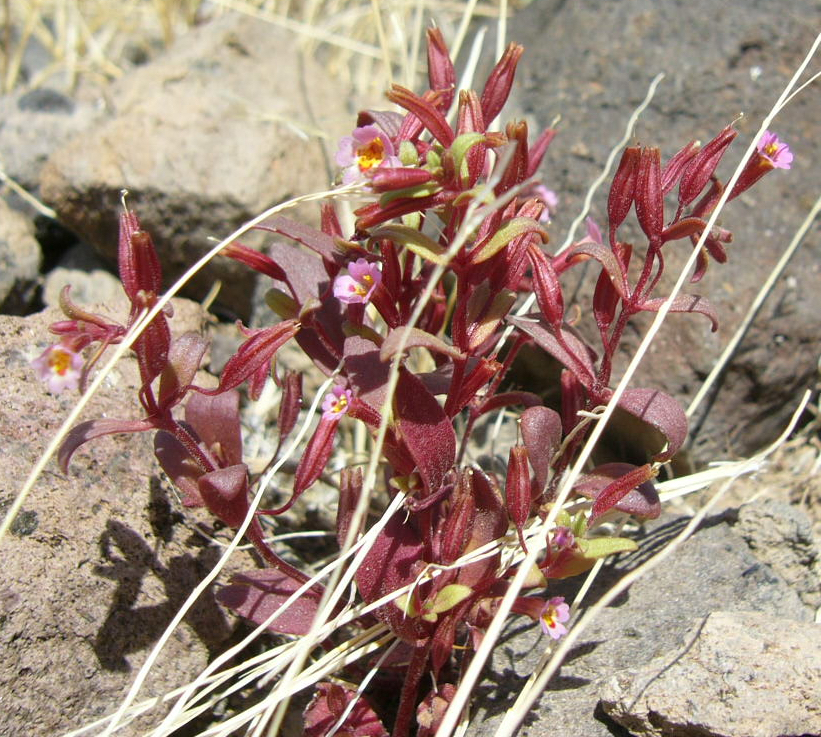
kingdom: Plantae
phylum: Tracheophyta
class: Magnoliopsida
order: Lamiales
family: Phrymaceae
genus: Erythranthe
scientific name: Erythranthe rubella
